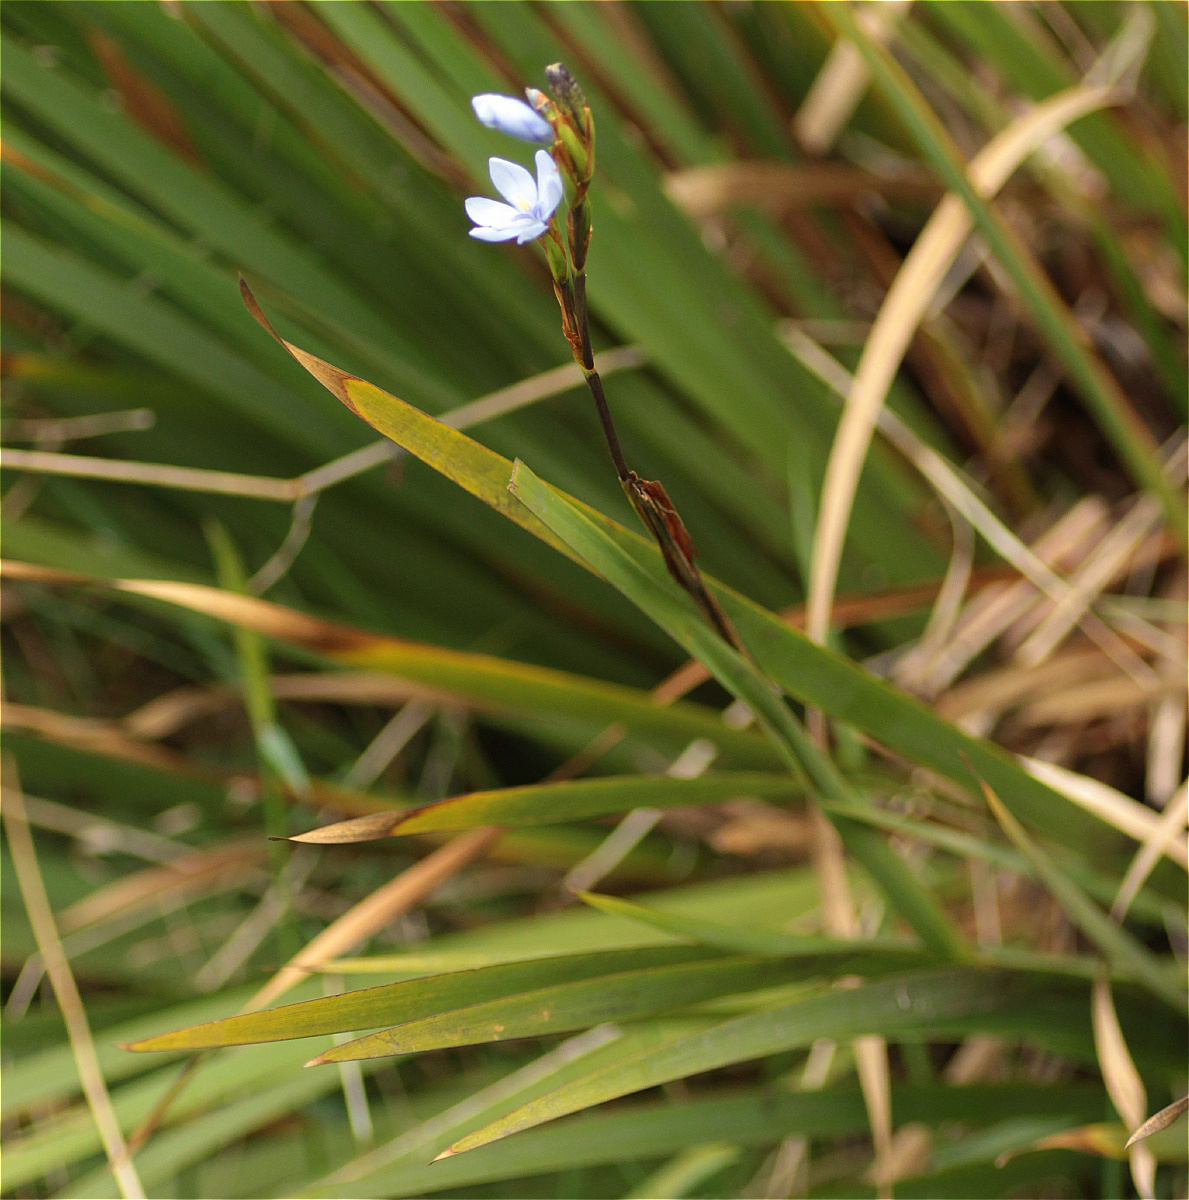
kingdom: Plantae
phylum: Tracheophyta
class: Liliopsida
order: Asparagales
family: Iridaceae
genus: Orthrosanthus
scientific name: Orthrosanthus chimboracensis
